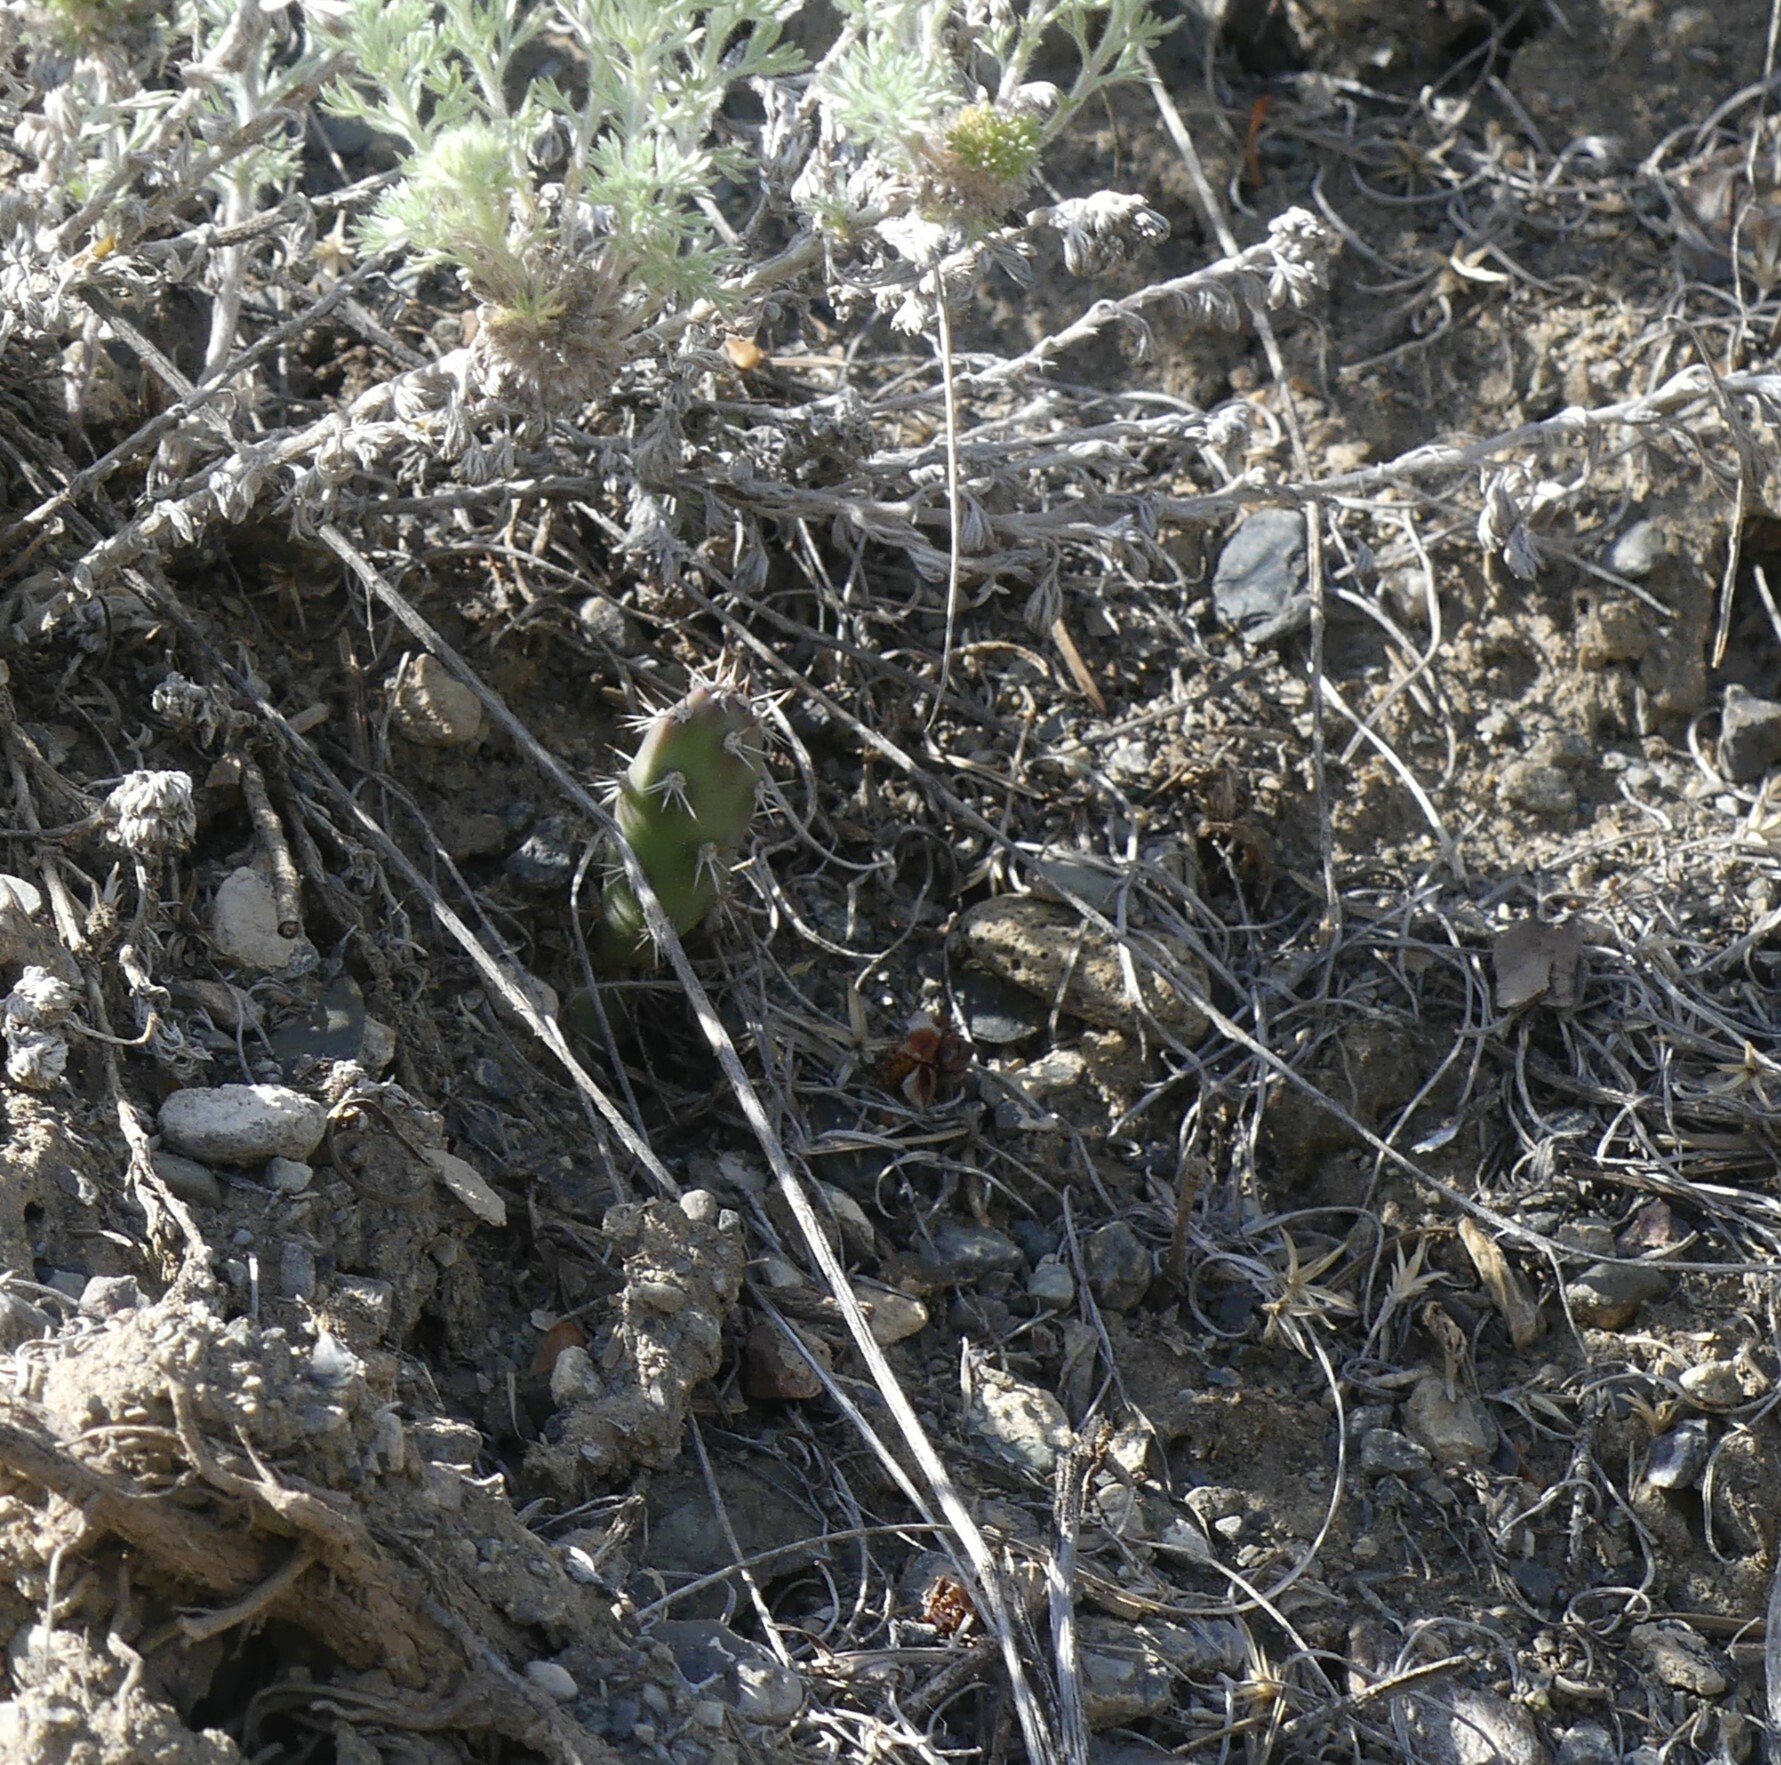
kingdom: Plantae
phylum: Tracheophyta
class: Magnoliopsida
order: Caryophyllales
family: Cactaceae
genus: Opuntia
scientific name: Opuntia fragilis
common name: Brittle cactus
